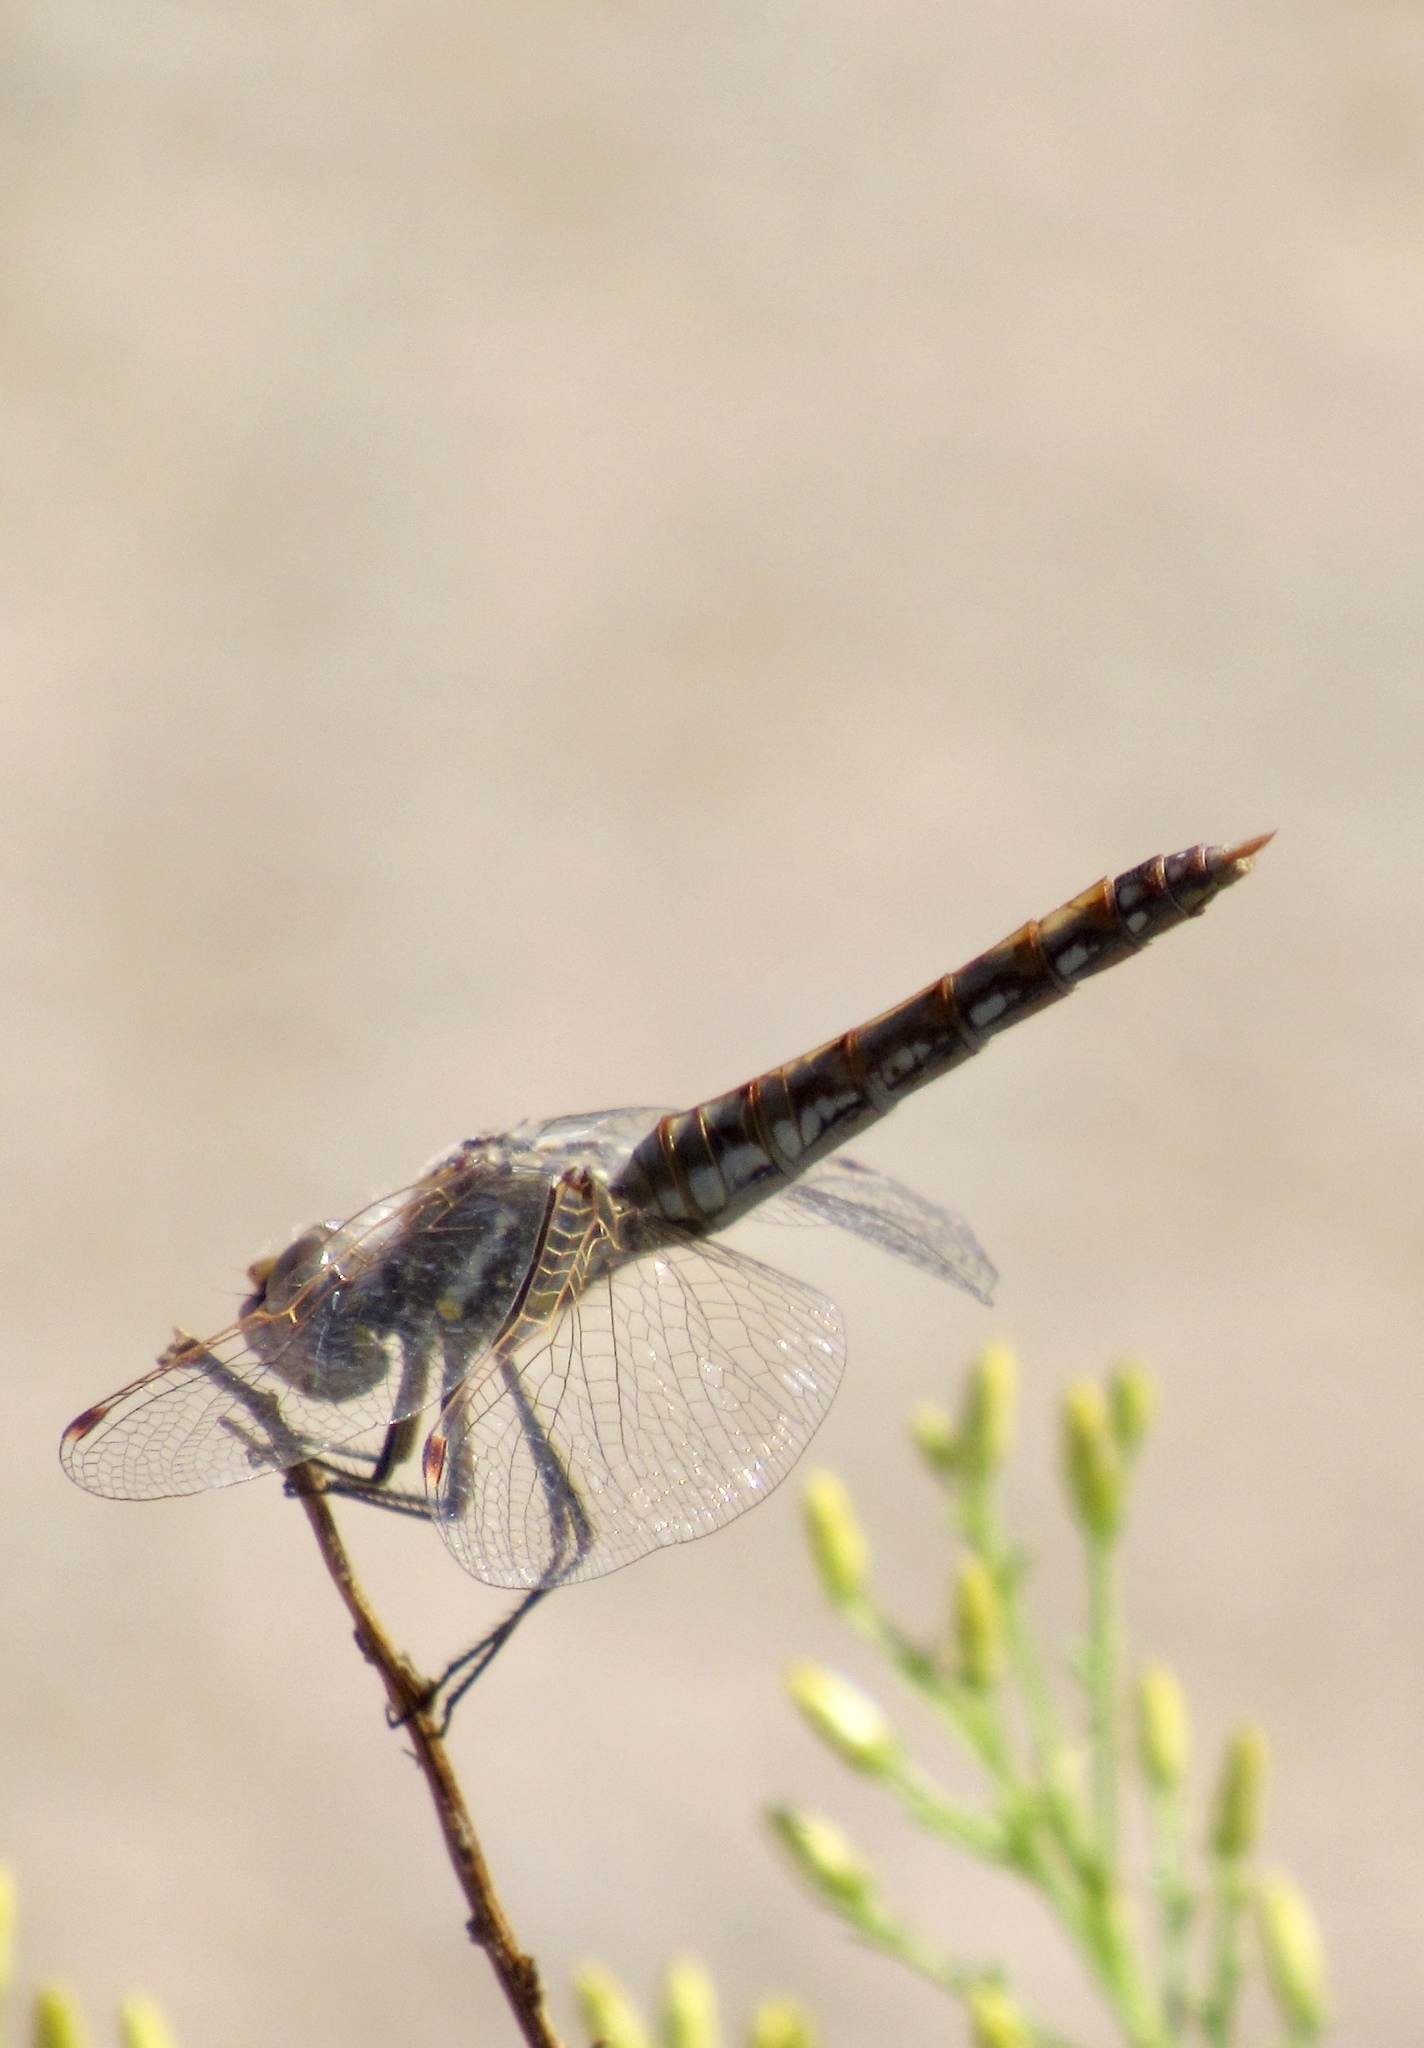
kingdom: Animalia
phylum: Arthropoda
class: Insecta
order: Odonata
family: Libellulidae
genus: Sympetrum
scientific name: Sympetrum corruptum
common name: Variegated meadowhawk
